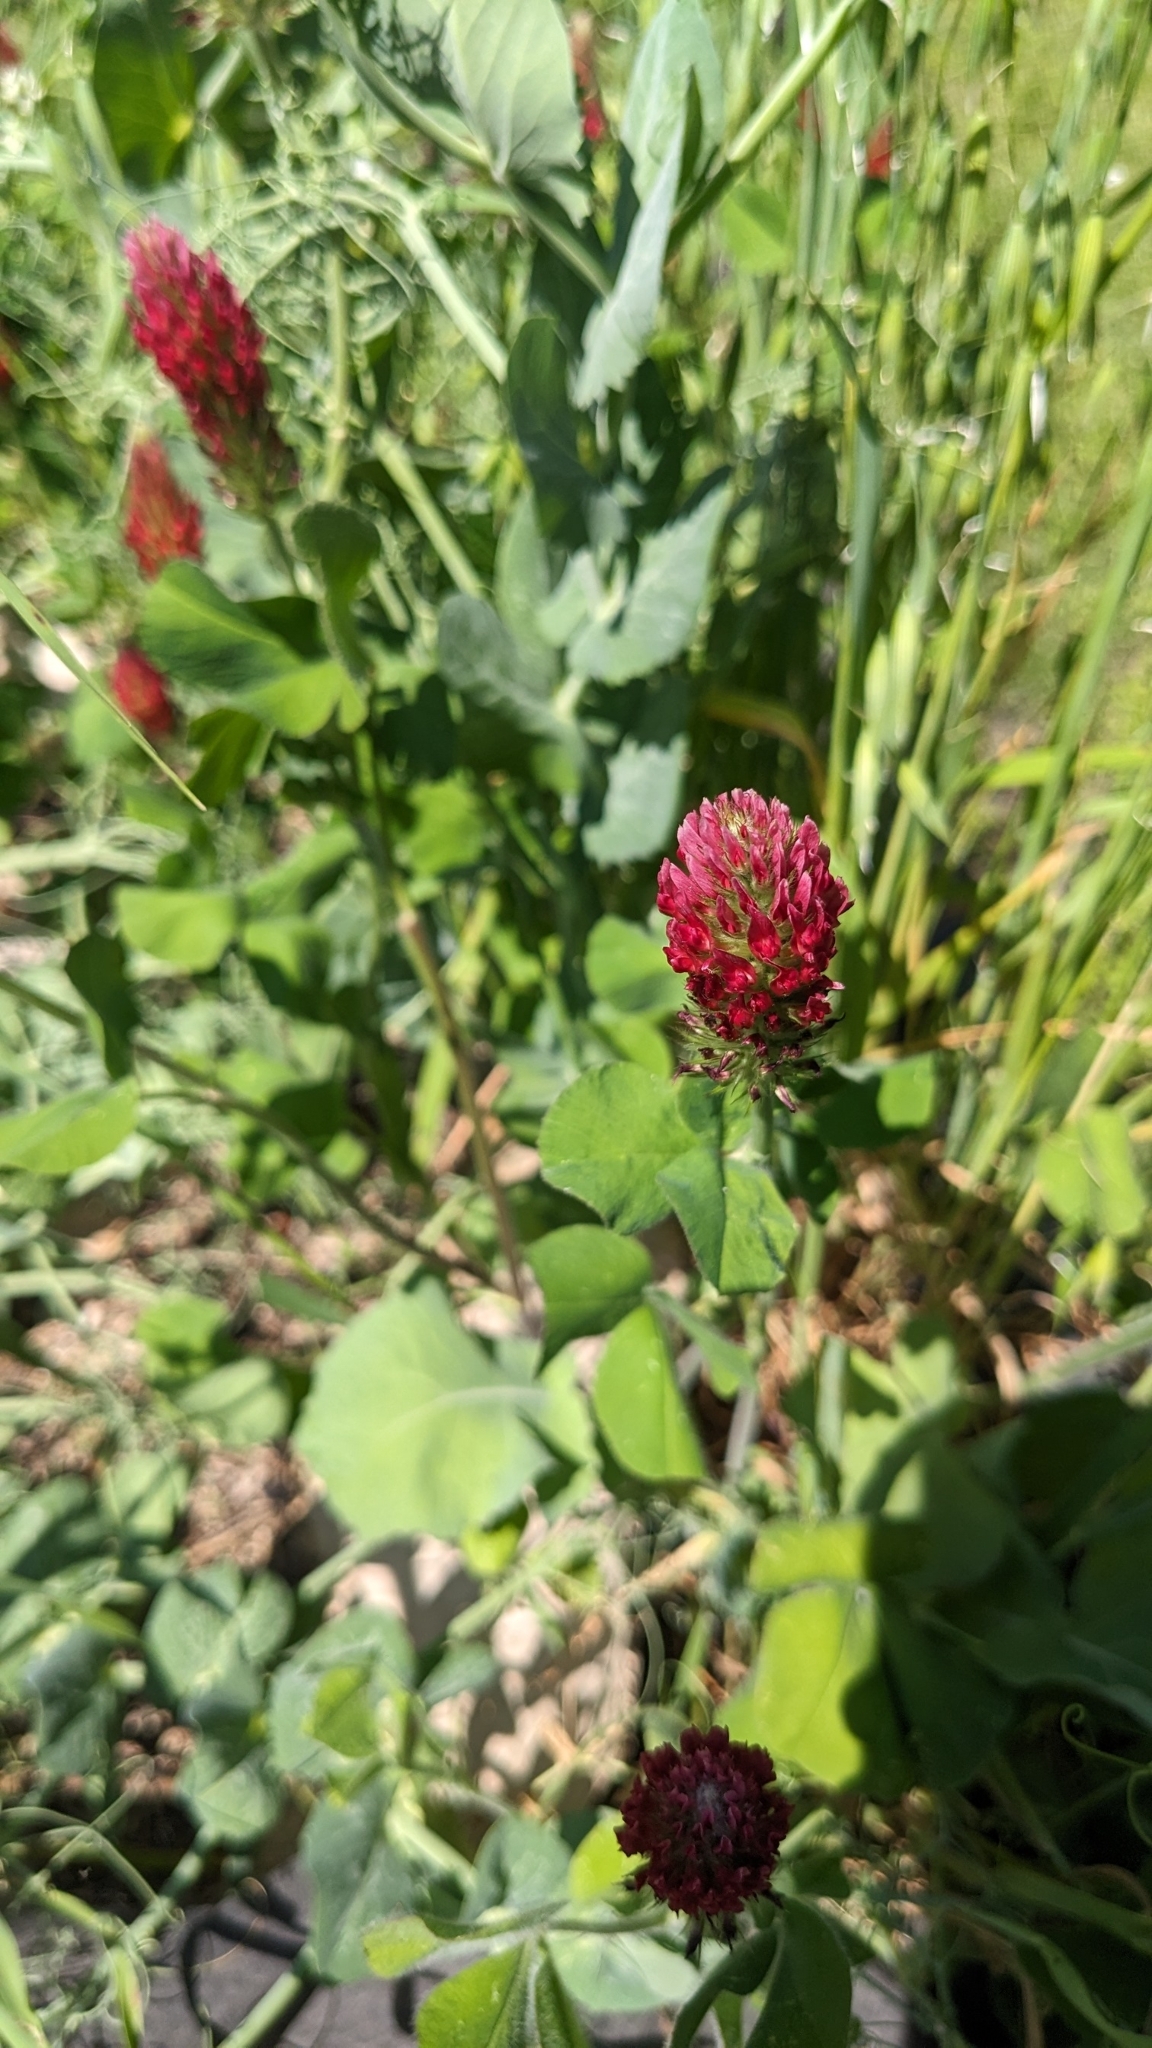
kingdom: Plantae
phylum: Tracheophyta
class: Magnoliopsida
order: Fabales
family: Fabaceae
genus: Trifolium
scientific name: Trifolium incarnatum
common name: Crimson clover
